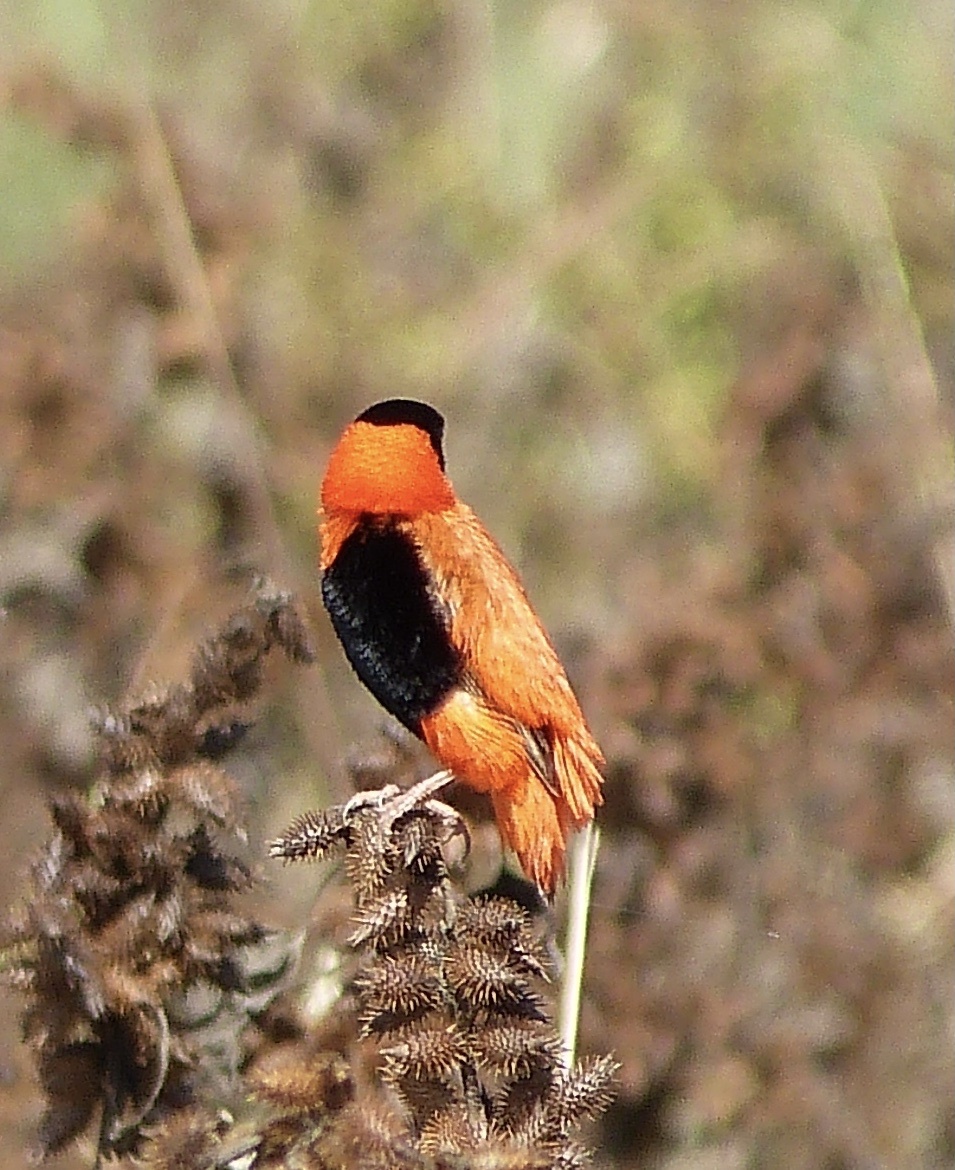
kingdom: Animalia
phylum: Chordata
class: Aves
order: Passeriformes
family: Ploceidae
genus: Euplectes
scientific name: Euplectes franciscanus
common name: Northern red bishop
